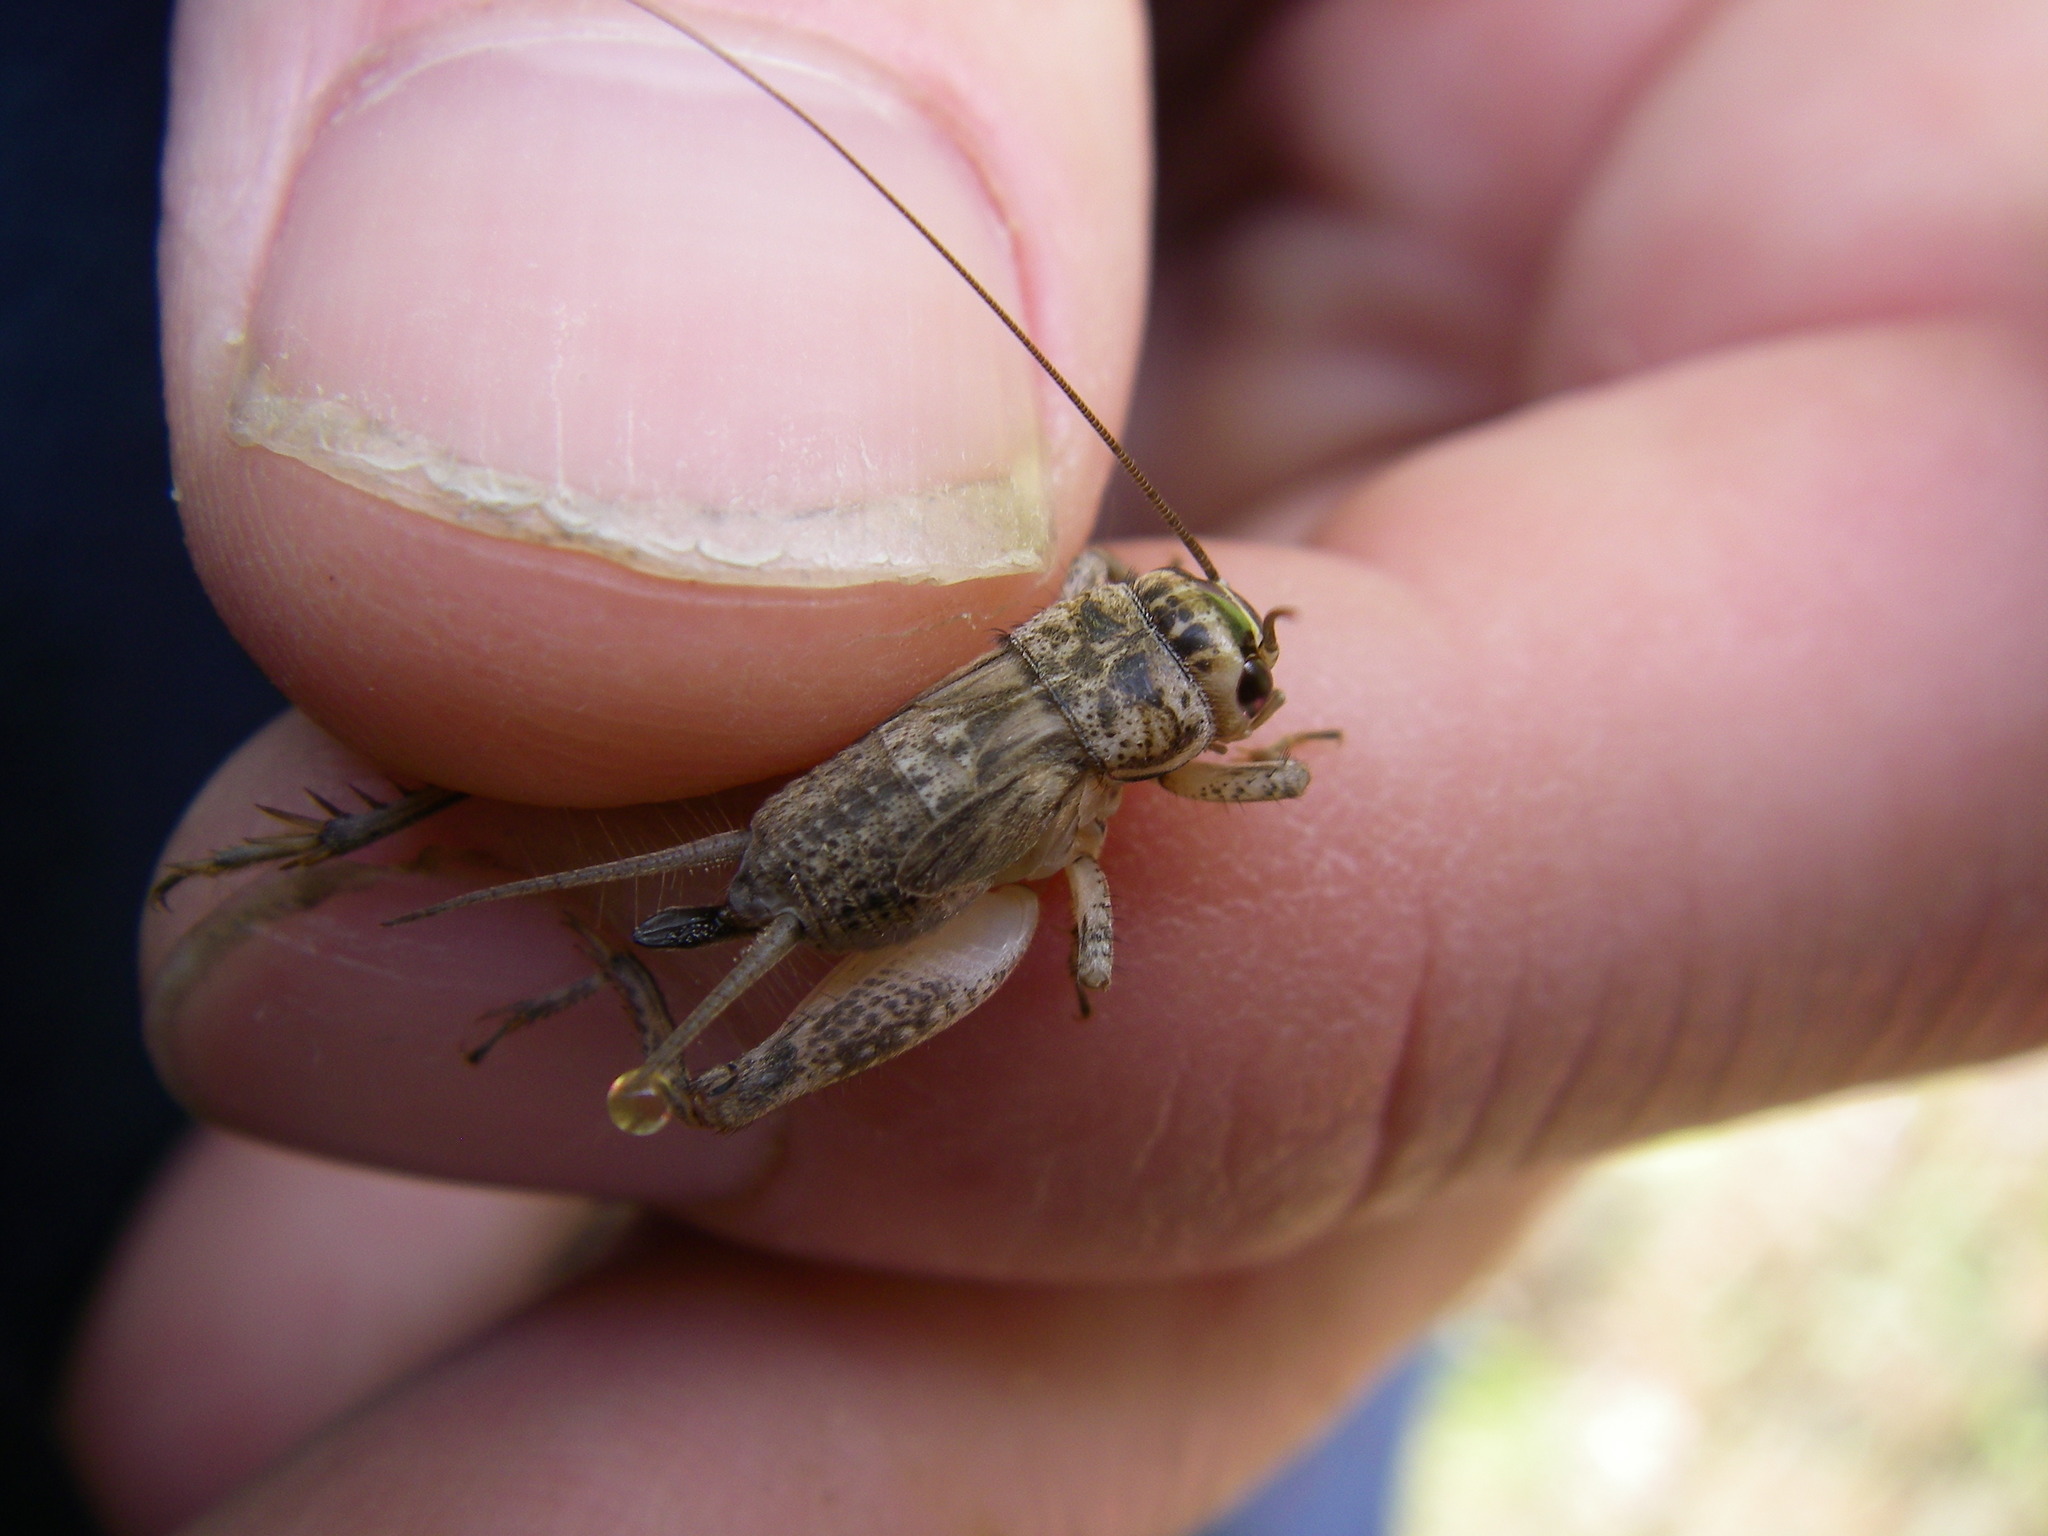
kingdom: Animalia
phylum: Arthropoda
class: Insecta
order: Orthoptera
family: Gryllidae
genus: Eumodicogryllus
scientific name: Eumodicogryllus bordigalensis
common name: Bordeaux cricket
